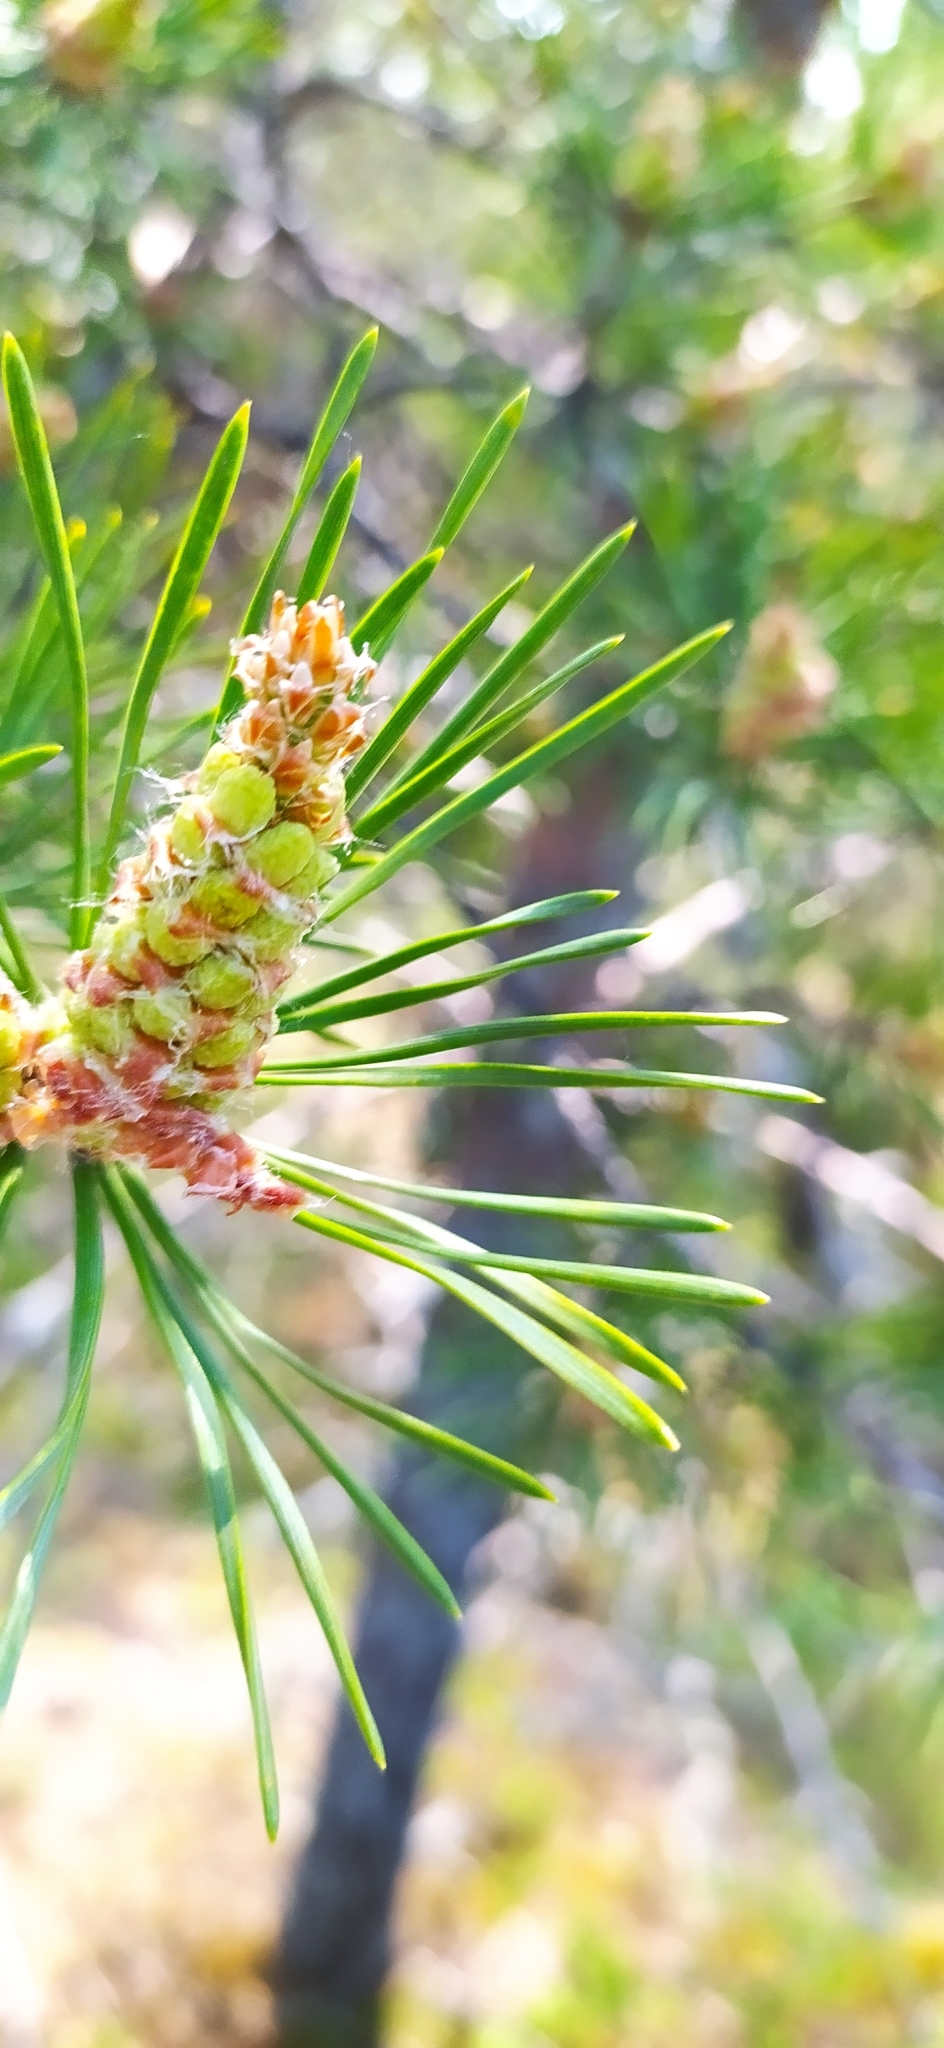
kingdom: Plantae
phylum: Tracheophyta
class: Pinopsida
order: Pinales
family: Pinaceae
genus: Pinus
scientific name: Pinus sylvestris
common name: Scots pine
